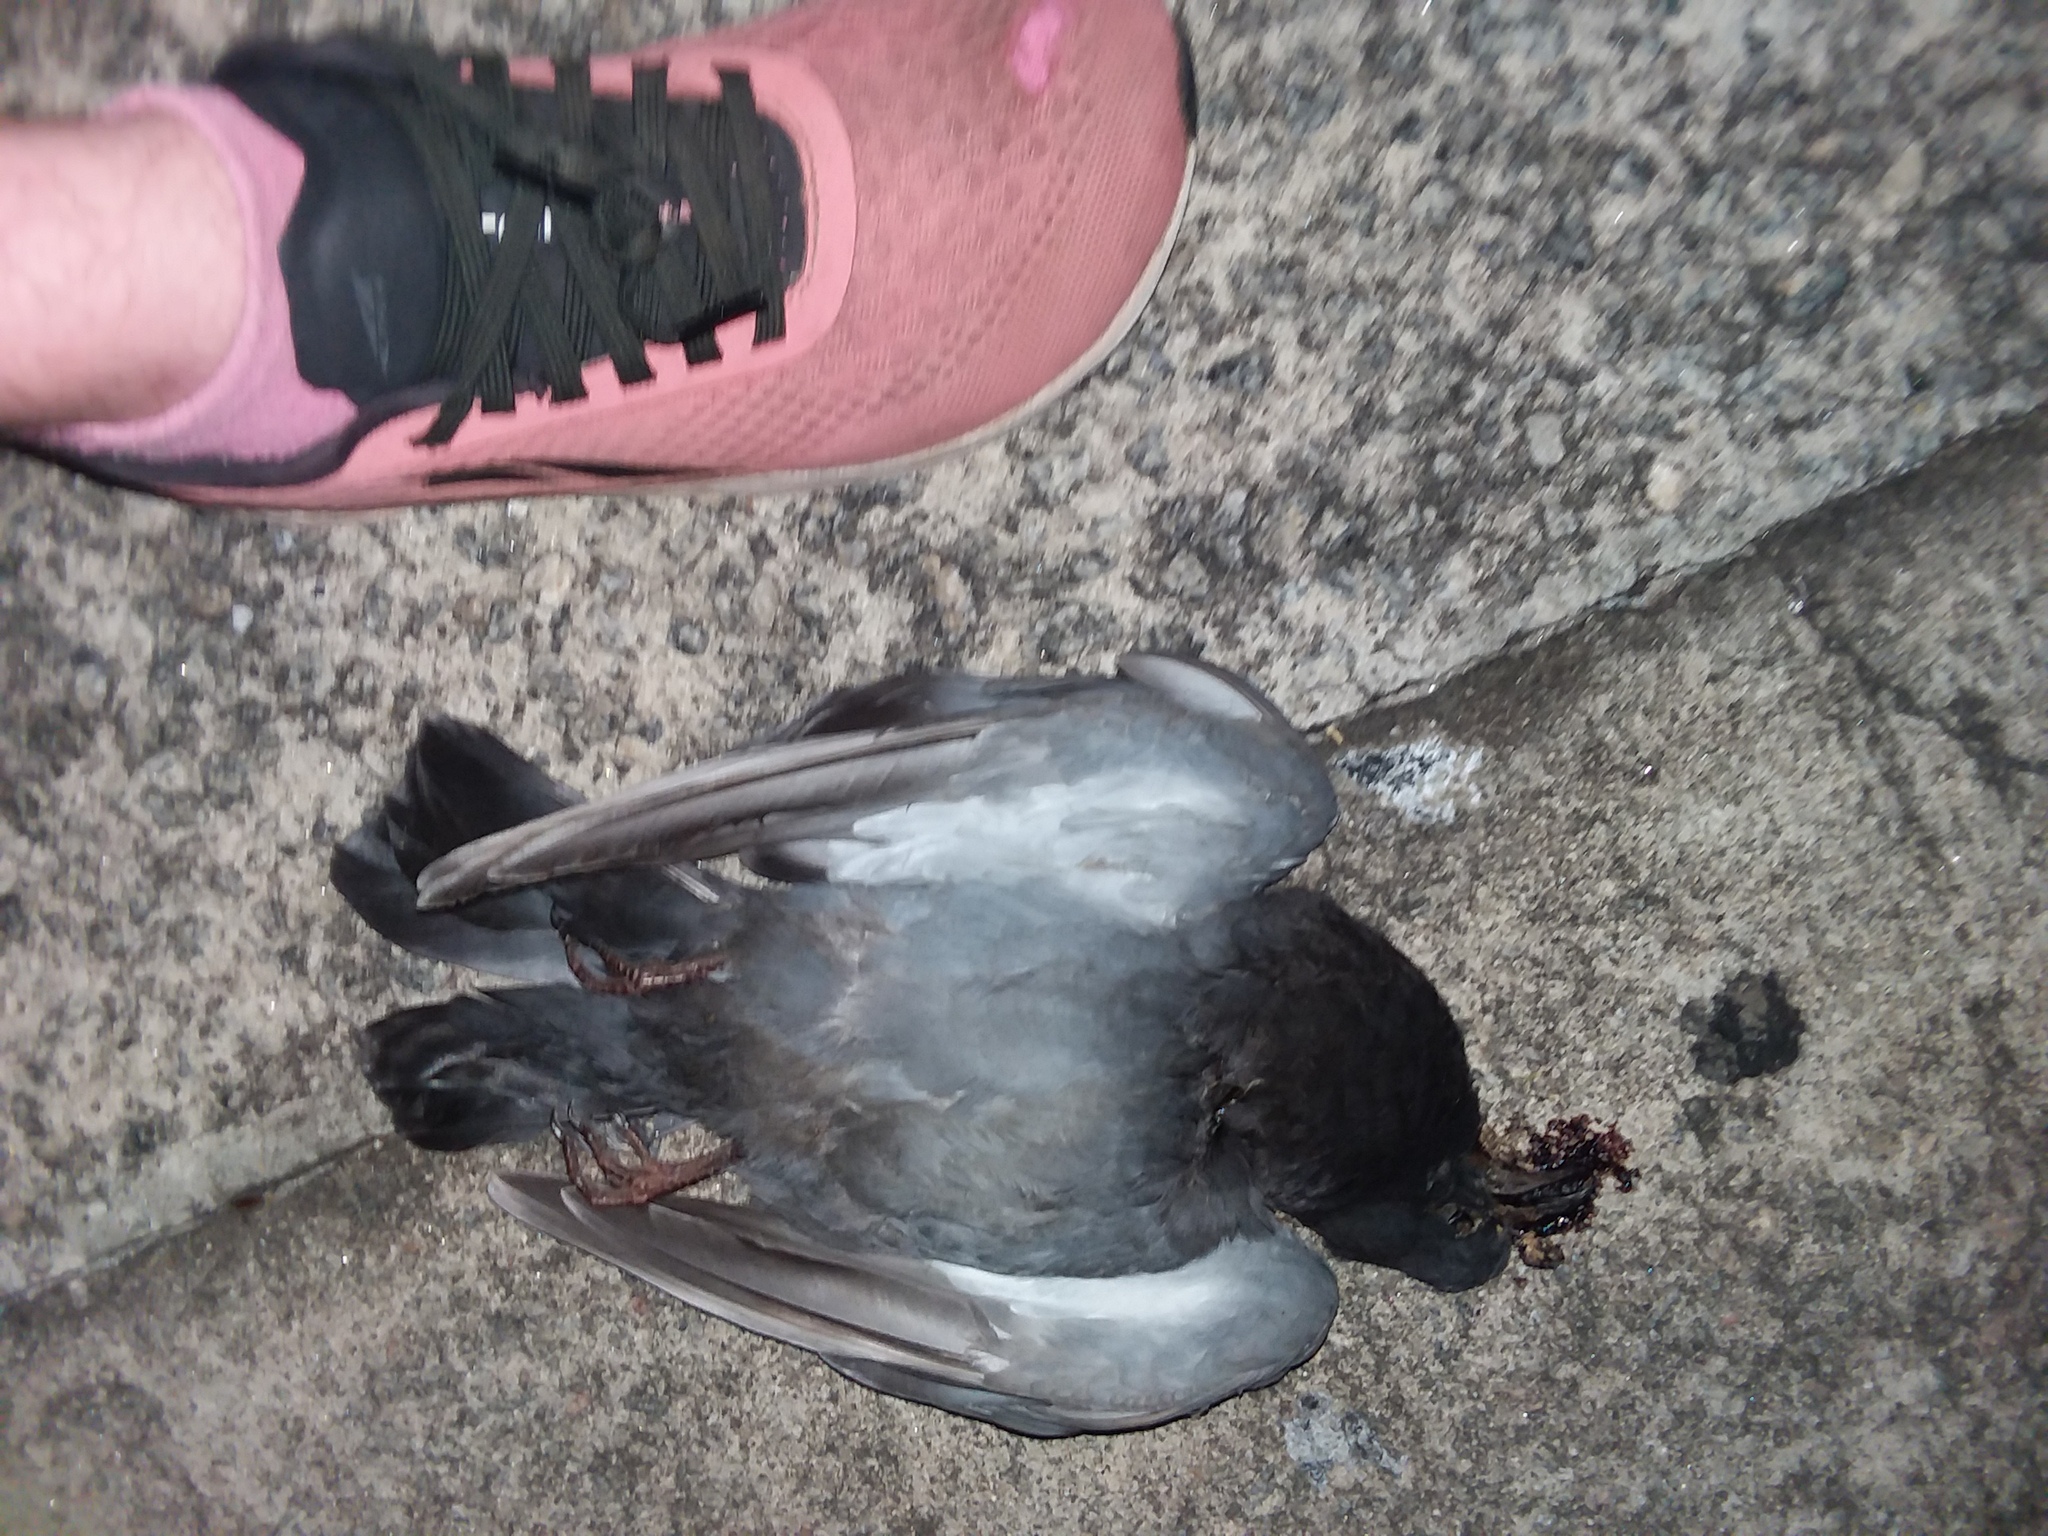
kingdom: Animalia
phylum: Chordata
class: Aves
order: Columbiformes
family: Columbidae
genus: Columba
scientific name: Columba livia
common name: Rock pigeon
